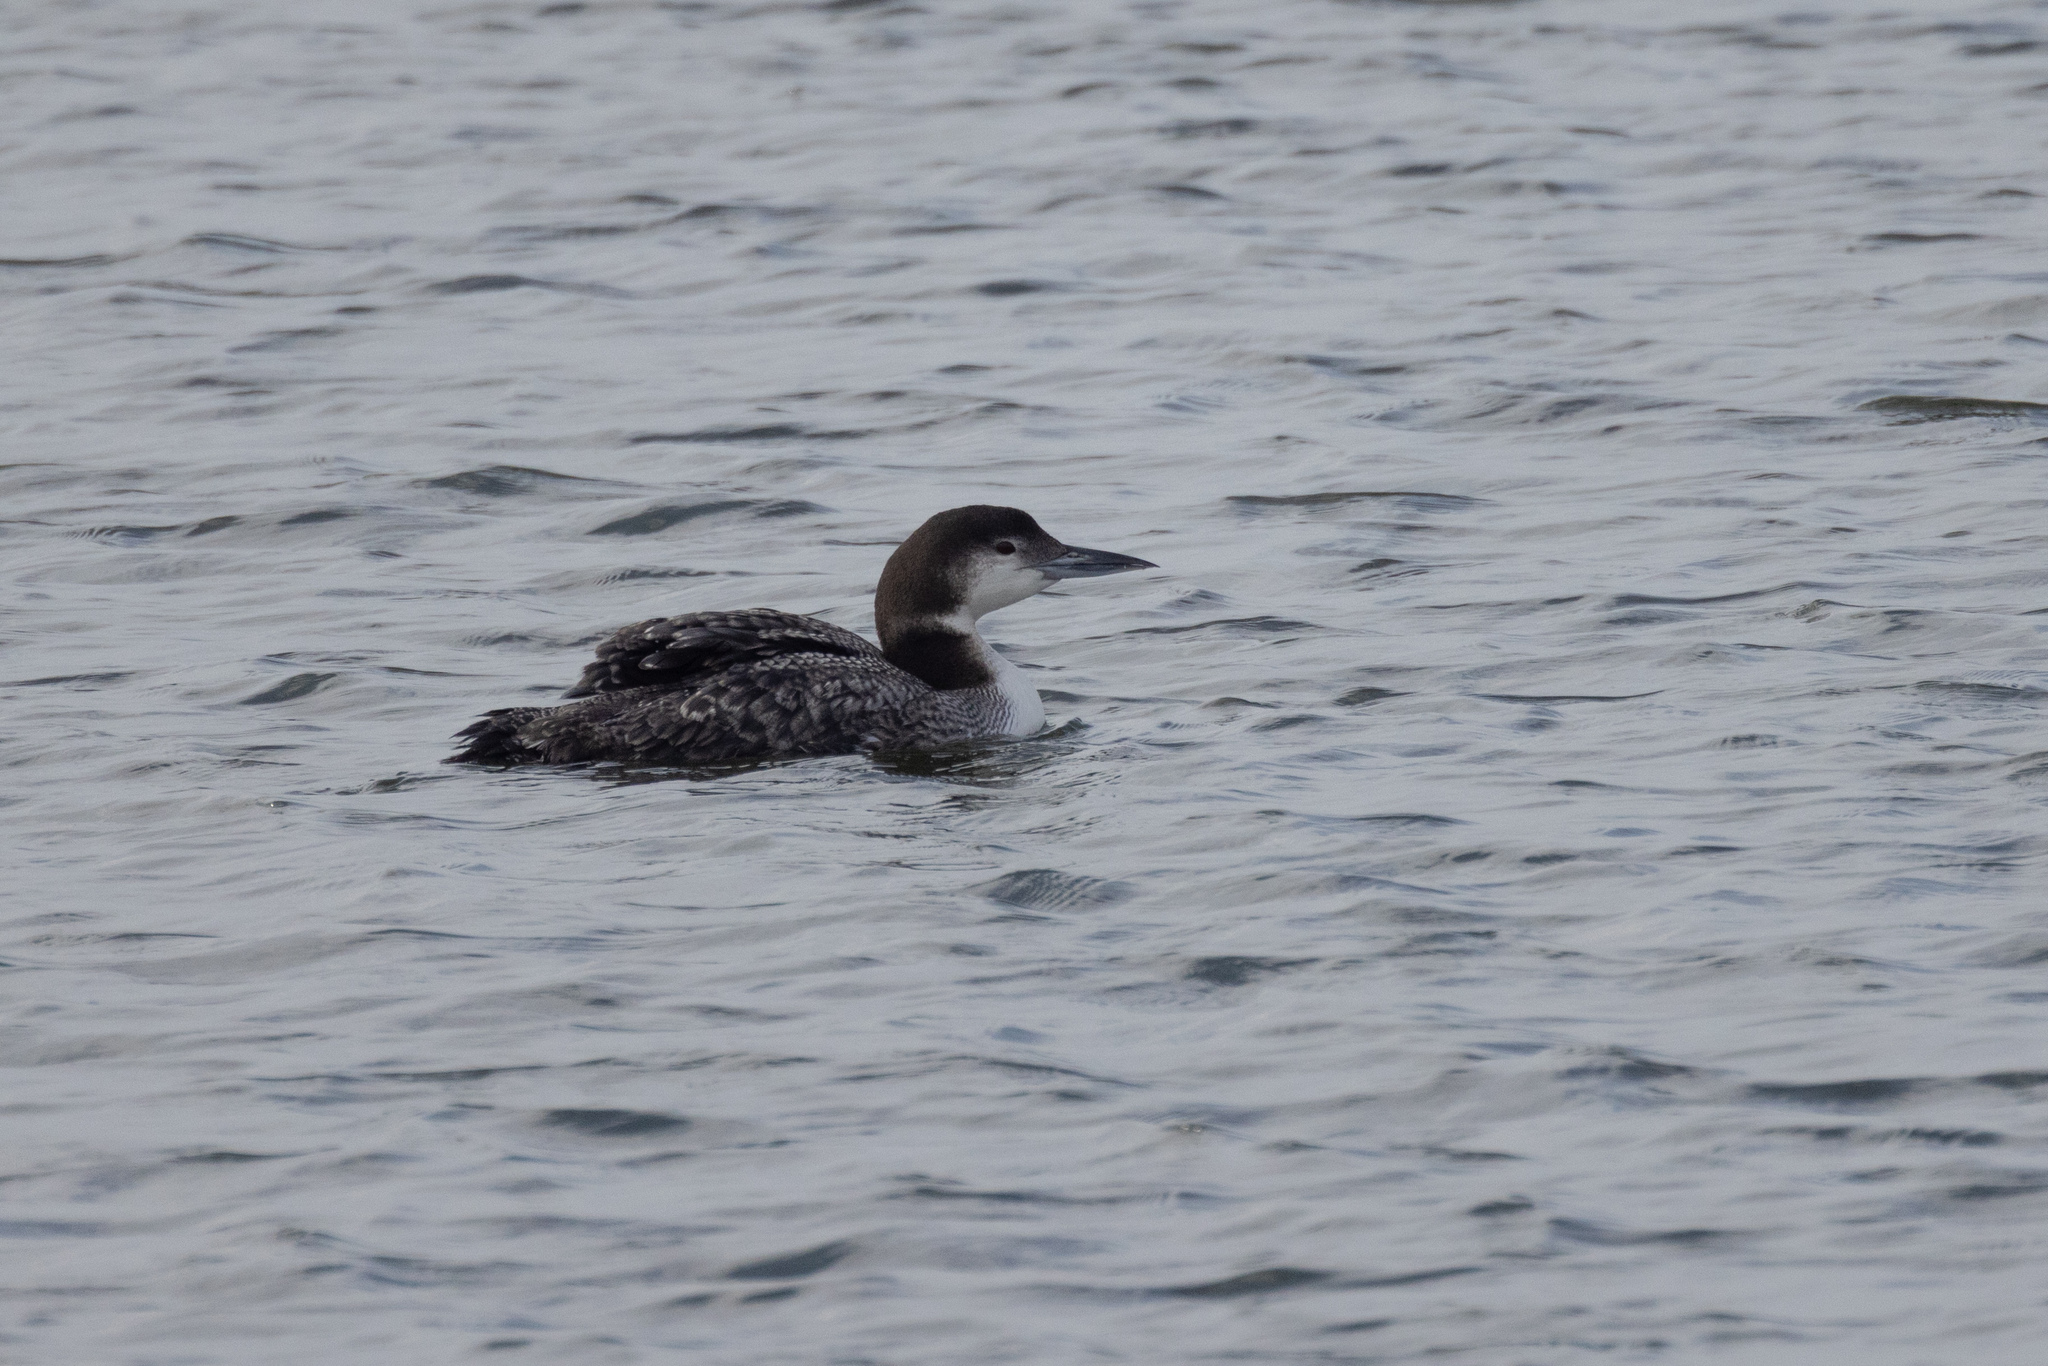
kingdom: Animalia
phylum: Chordata
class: Aves
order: Gaviiformes
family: Gaviidae
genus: Gavia
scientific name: Gavia immer
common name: Common loon
